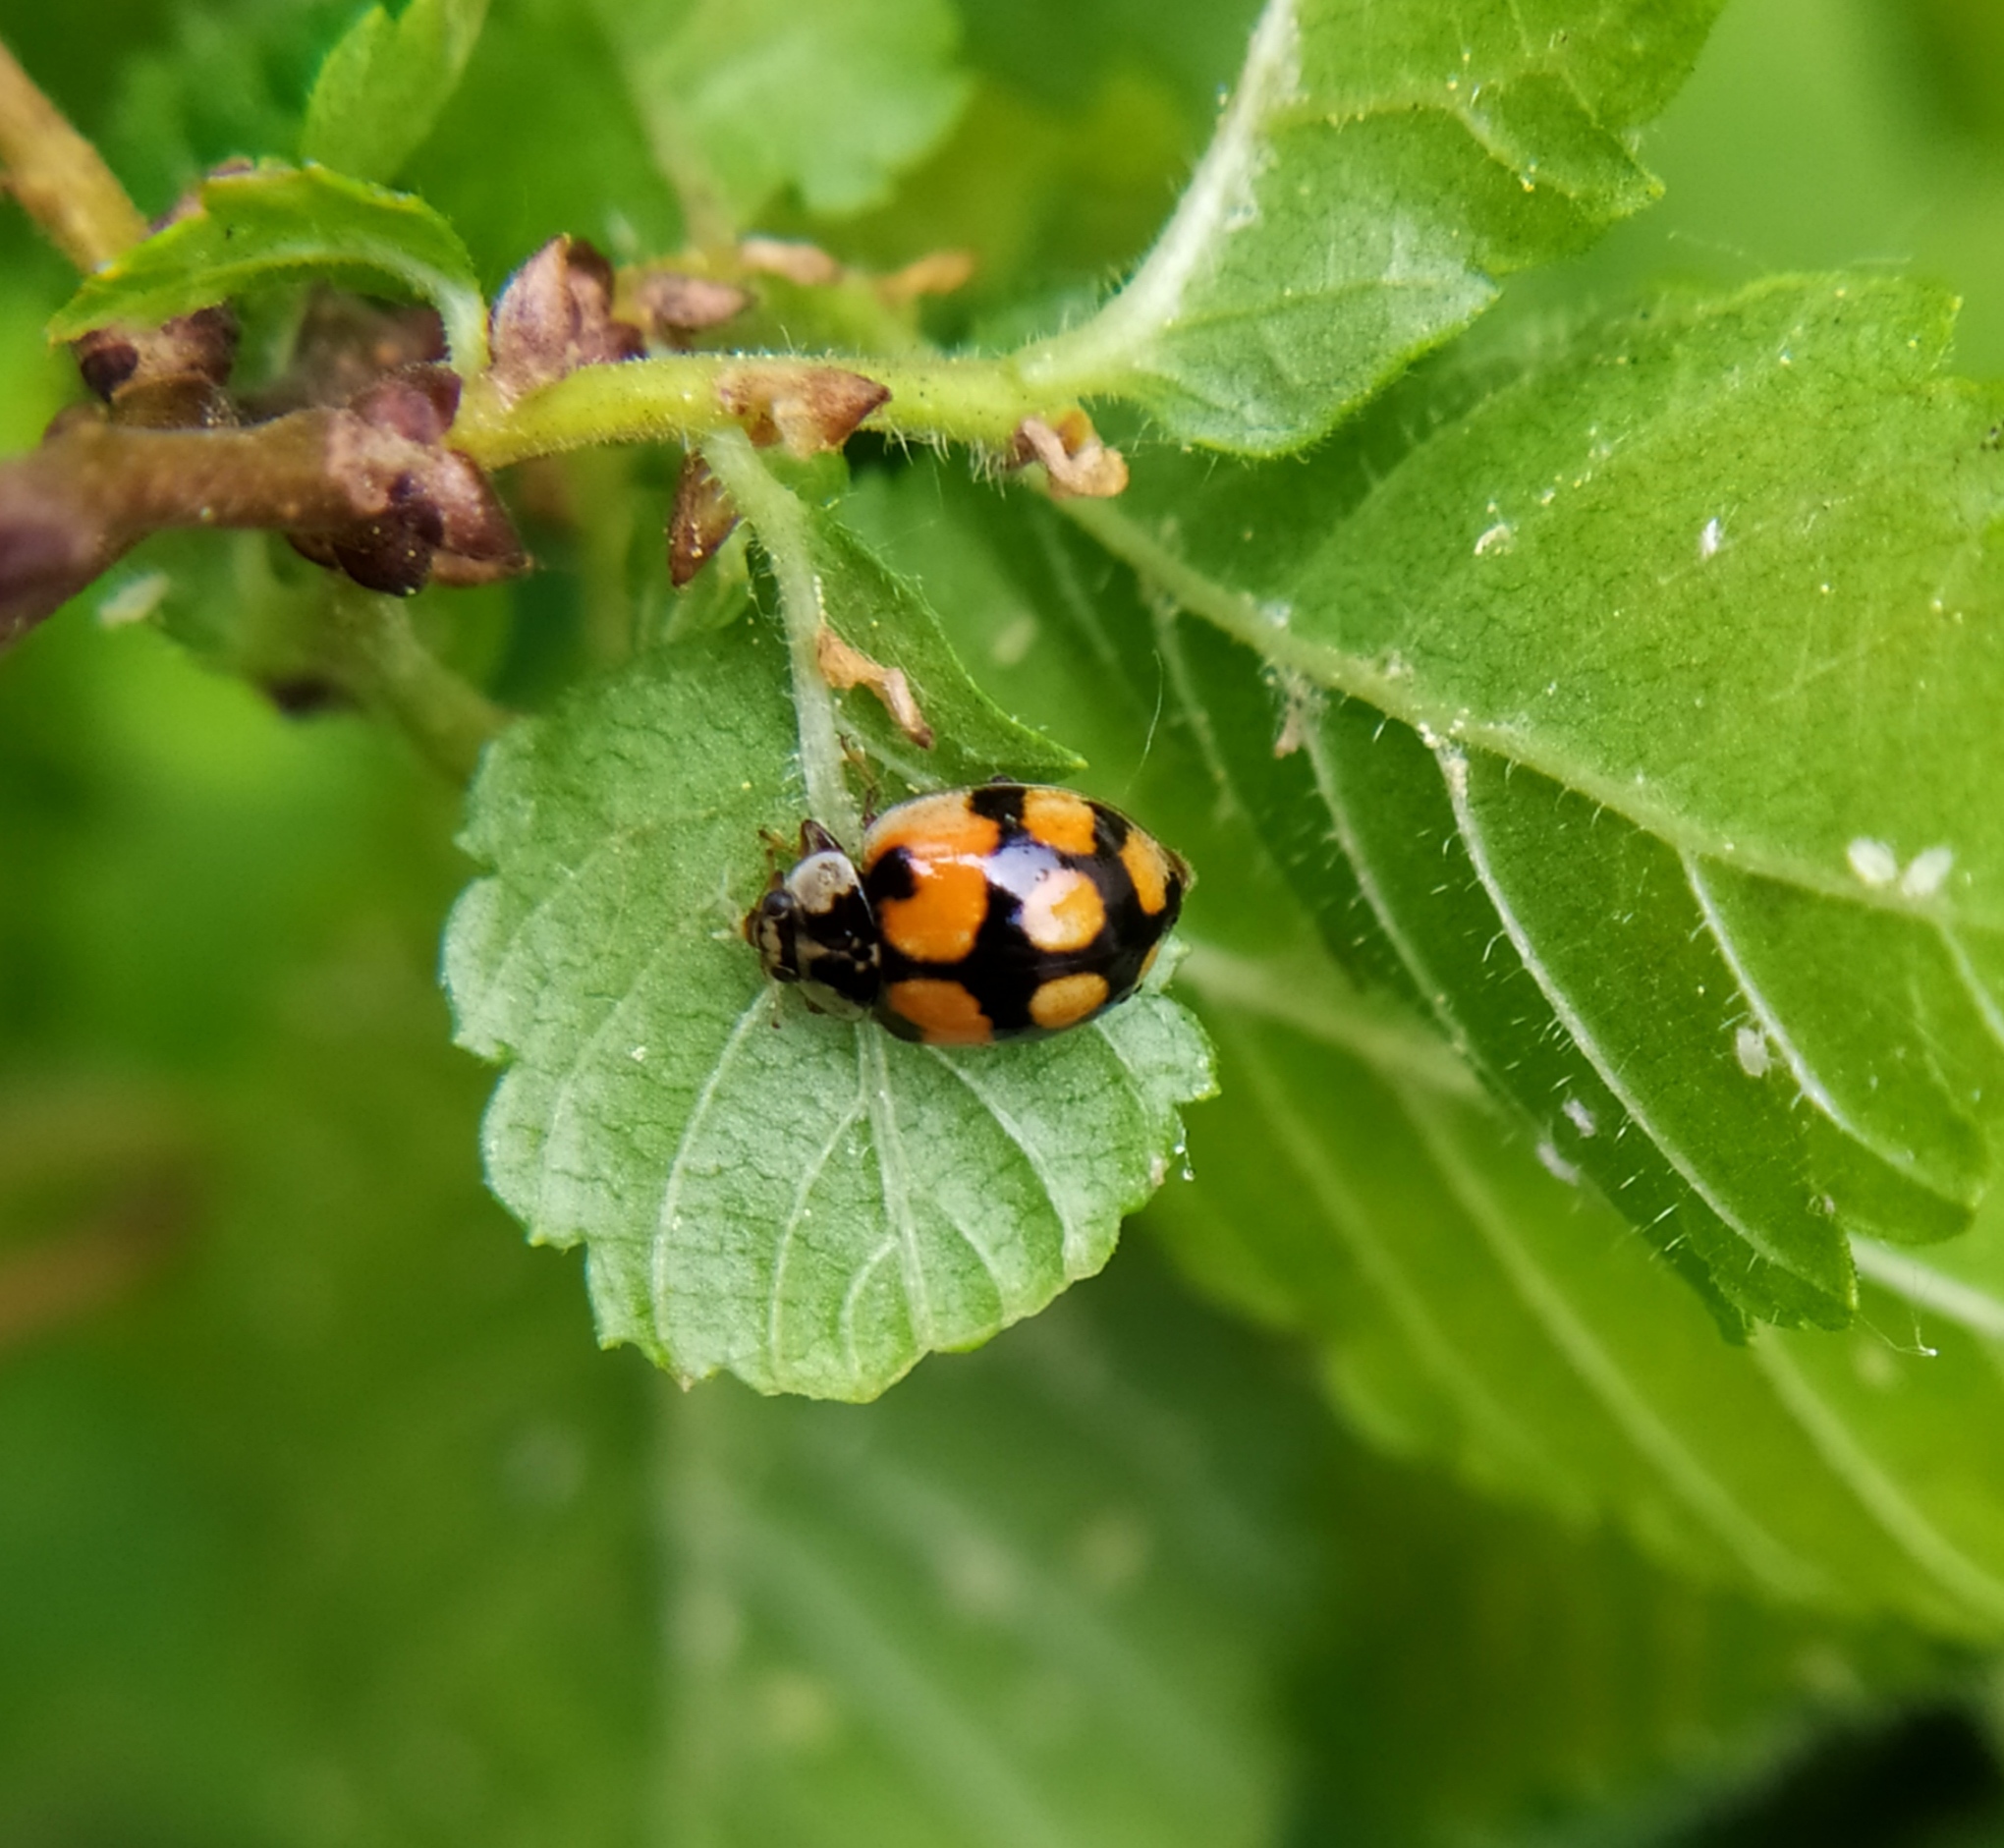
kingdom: Animalia
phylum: Arthropoda
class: Insecta
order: Coleoptera
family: Coccinellidae
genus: Adalia
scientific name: Adalia decempunctata
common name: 10-spot ladybird
